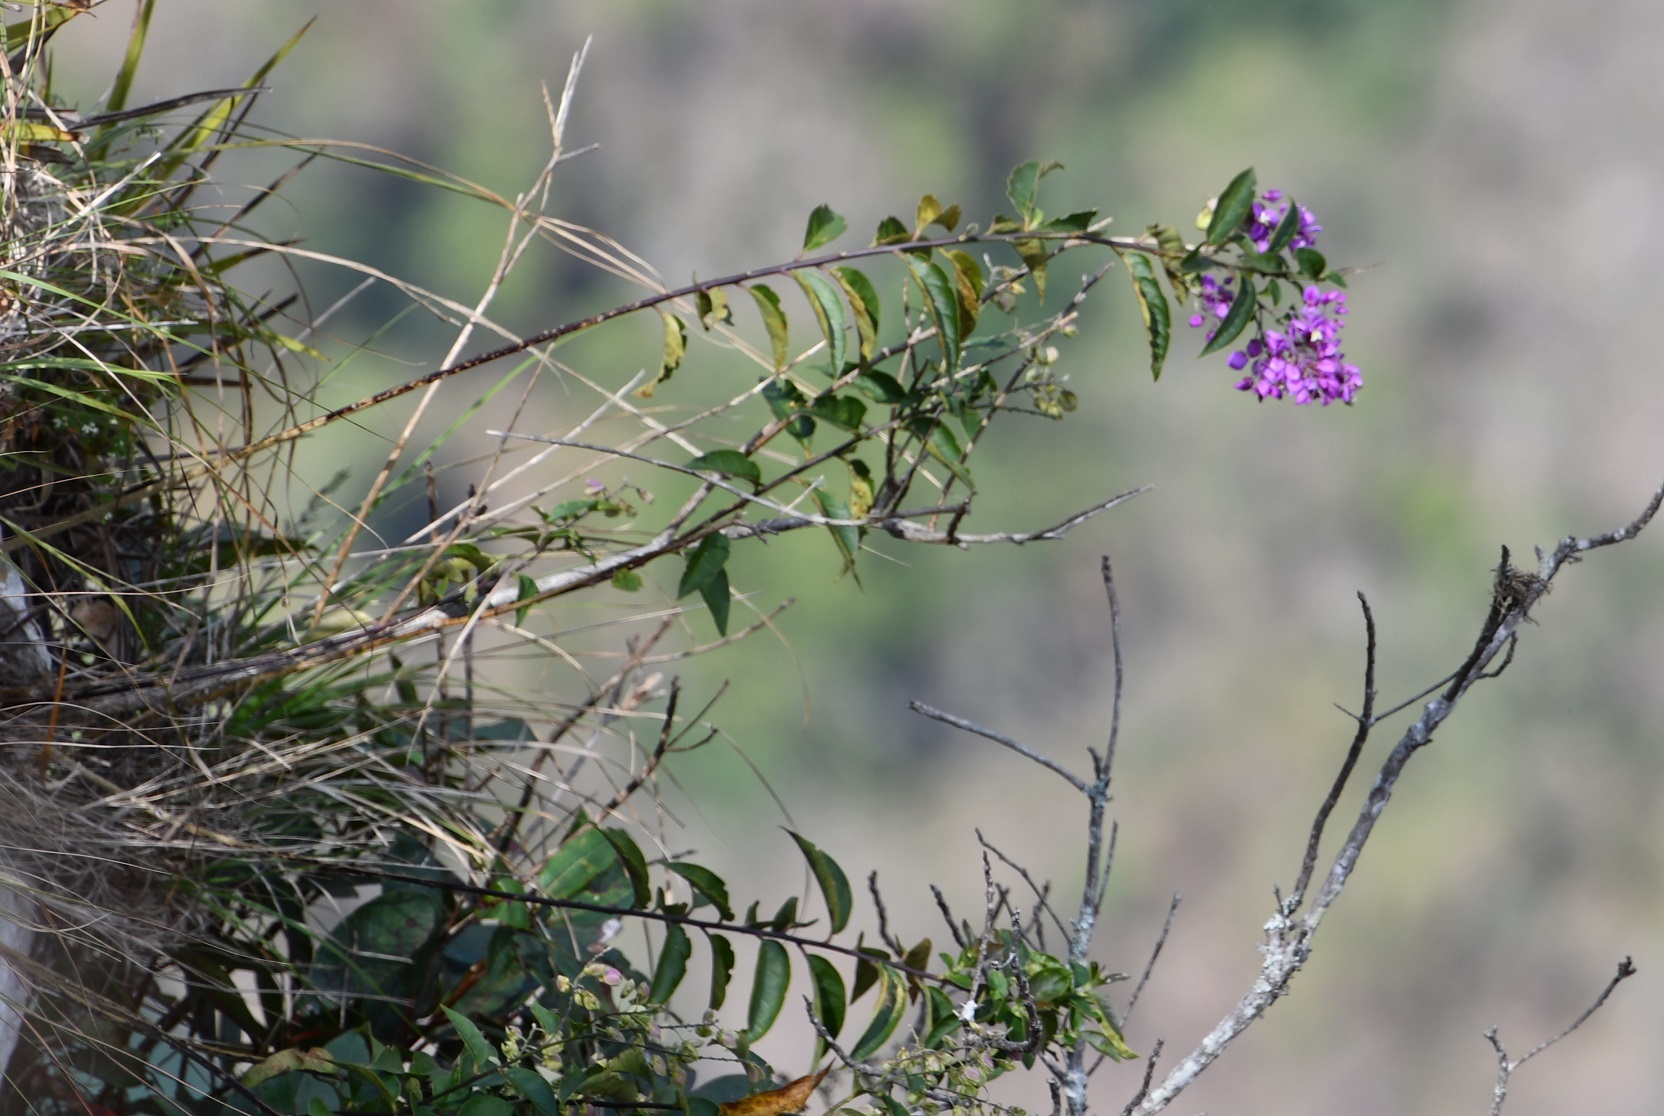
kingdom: Plantae
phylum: Tracheophyta
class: Magnoliopsida
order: Fabales
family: Polygalaceae
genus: Asemeia
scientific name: Asemeia floribunda
